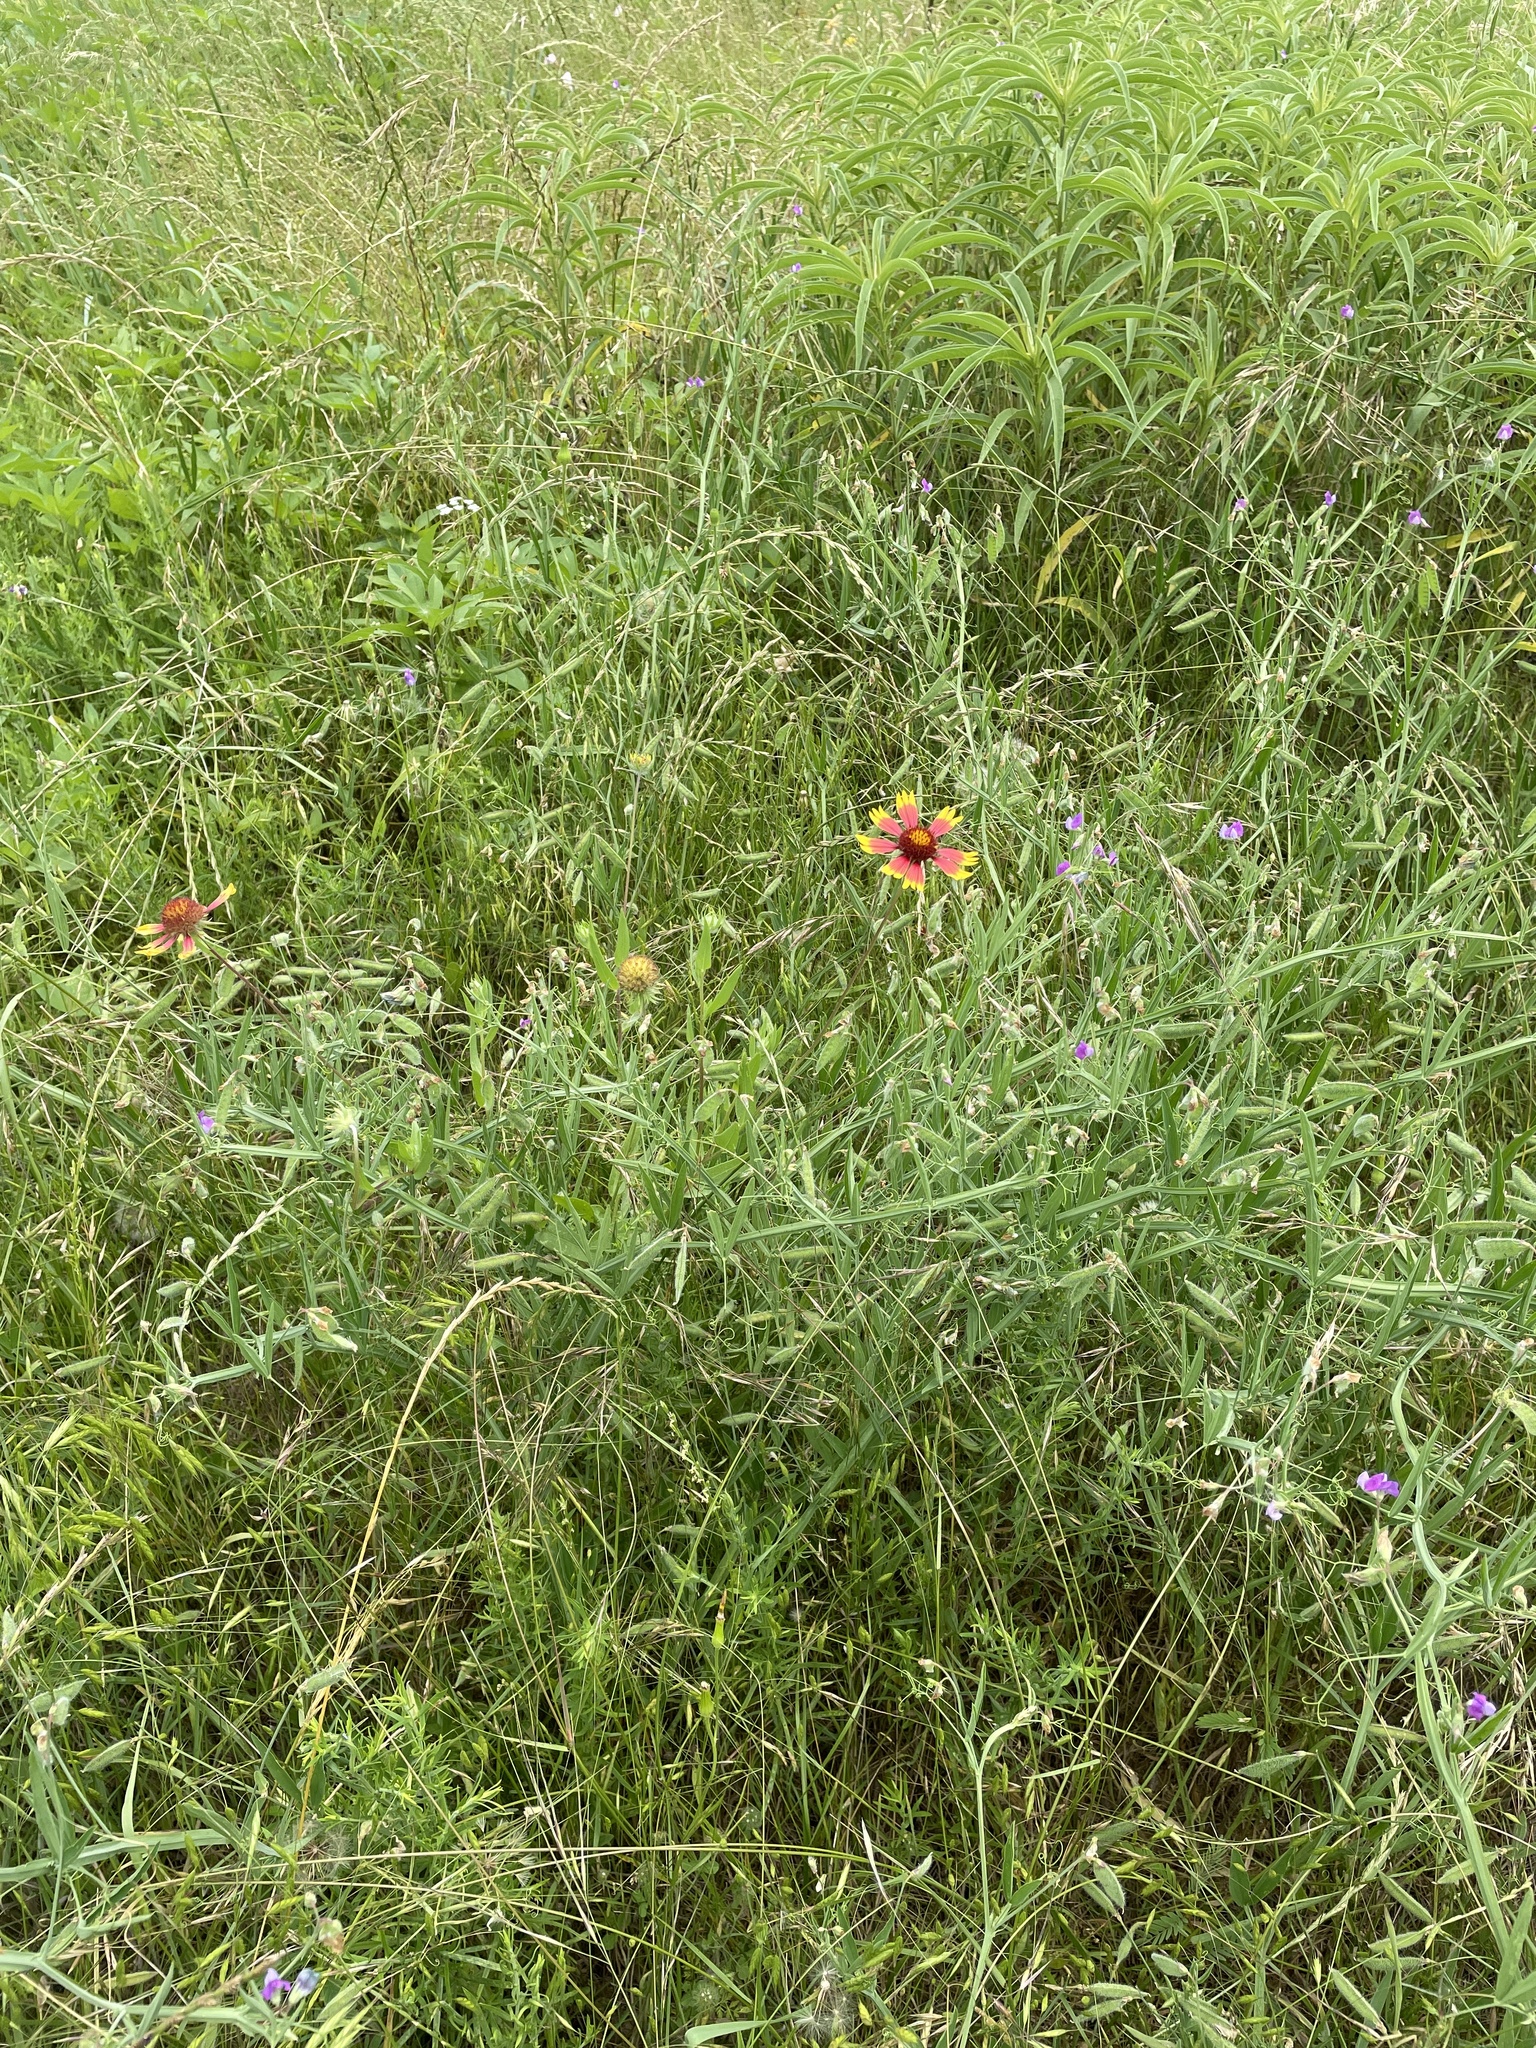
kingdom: Plantae
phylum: Tracheophyta
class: Magnoliopsida
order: Asterales
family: Asteraceae
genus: Gaillardia
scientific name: Gaillardia pulchella
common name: Firewheel
